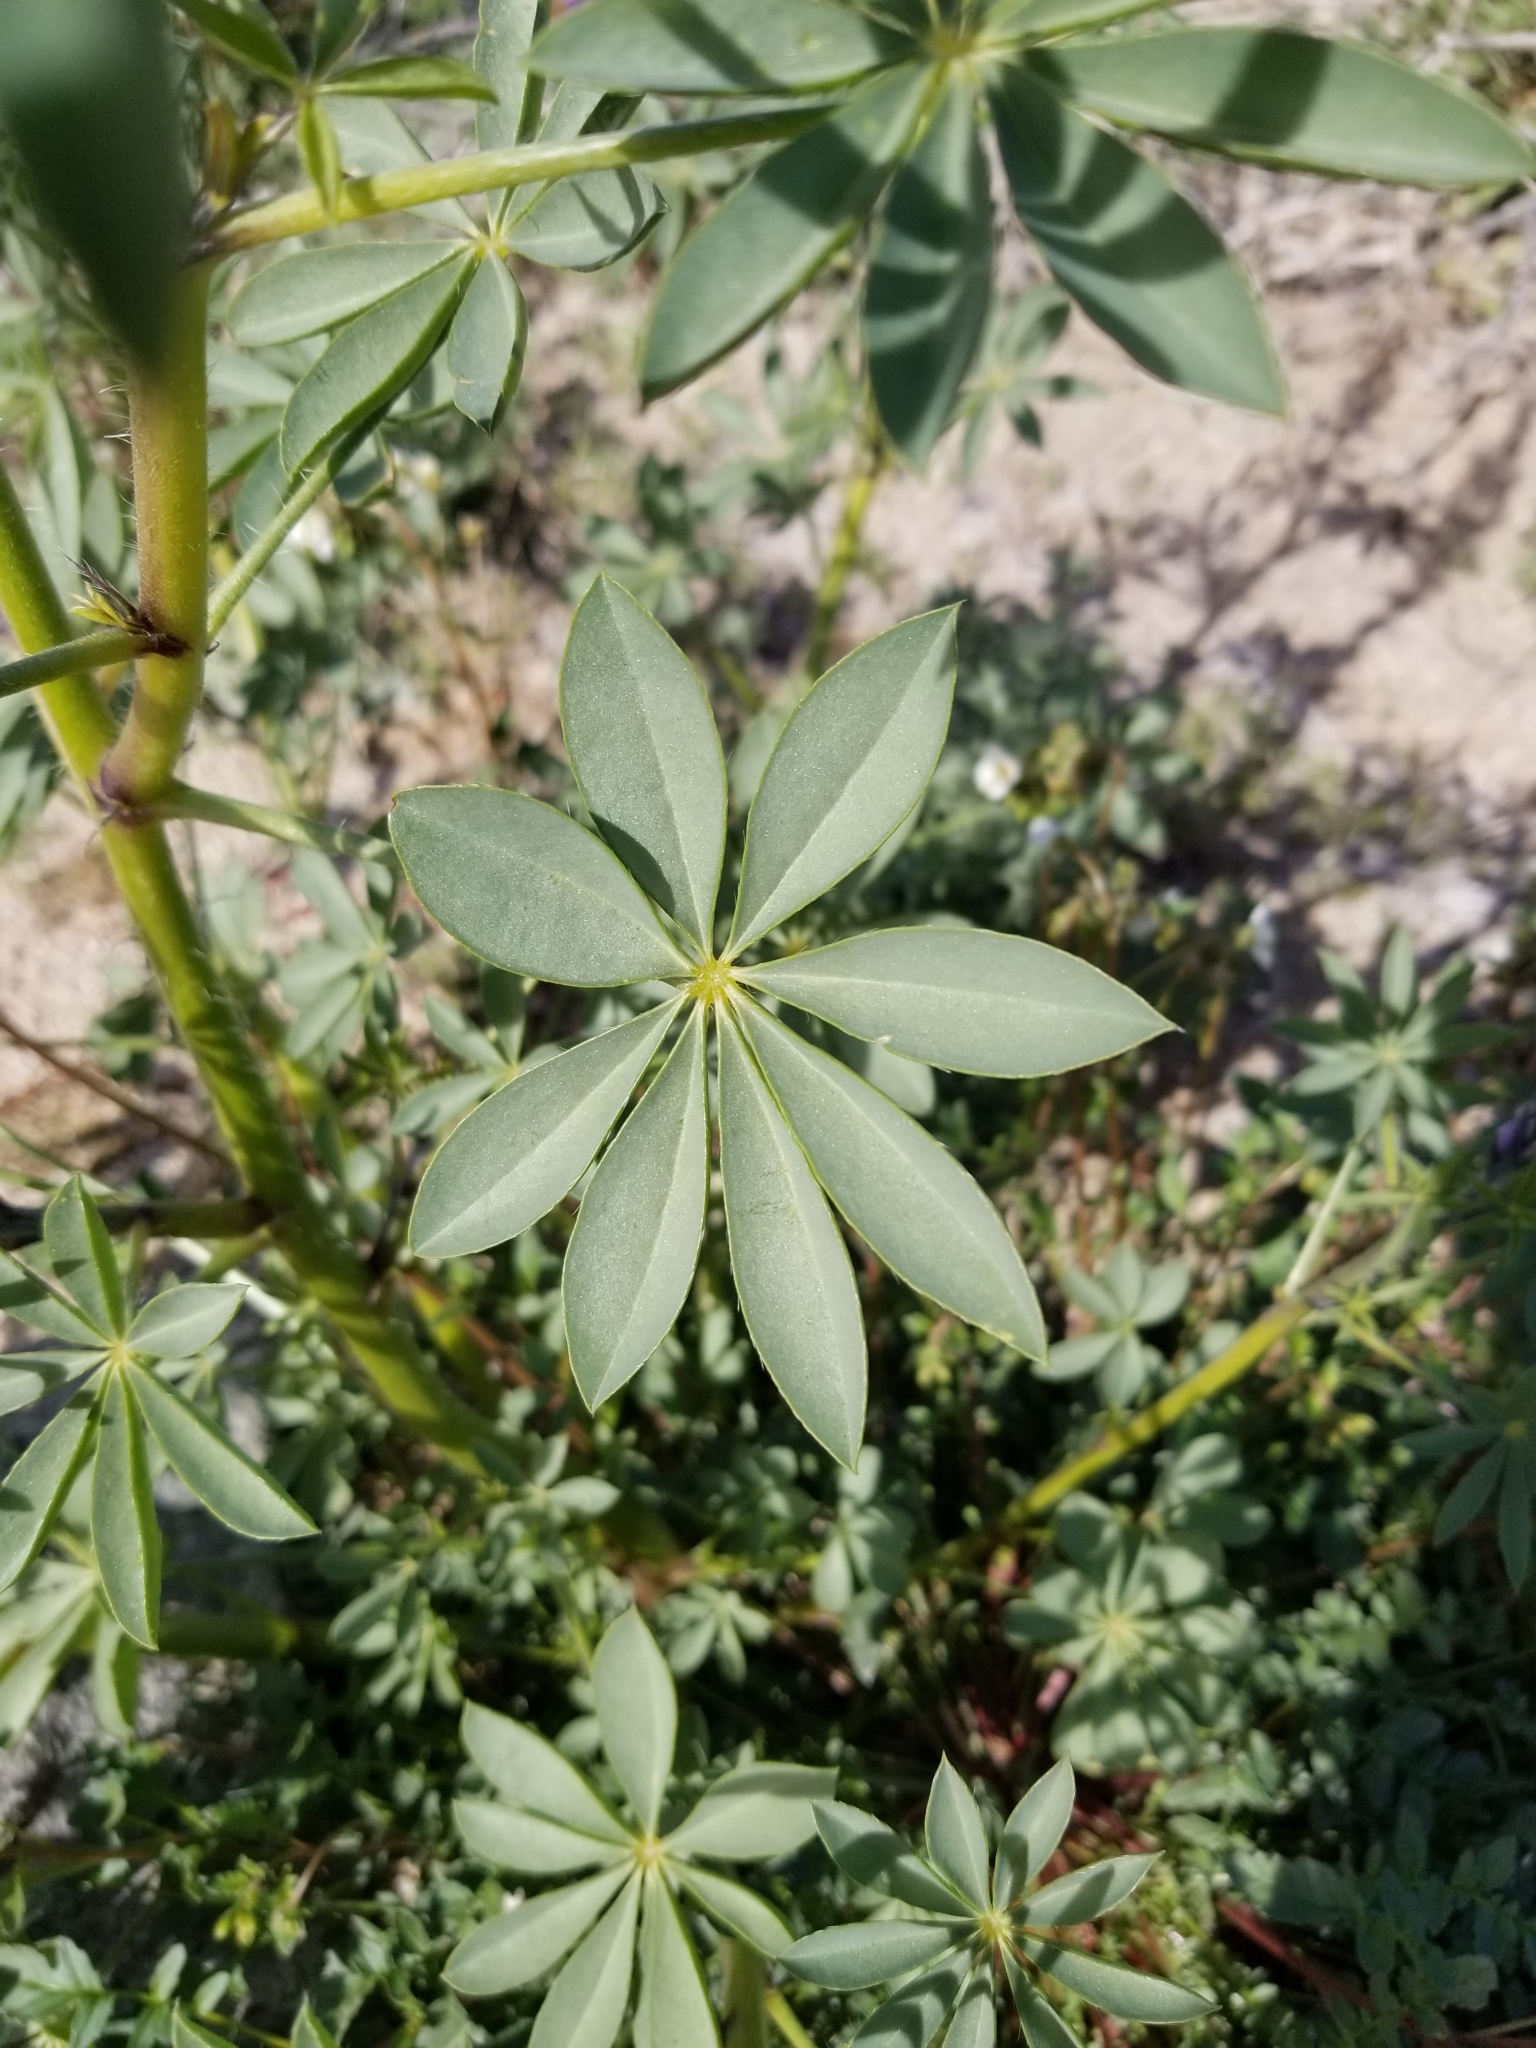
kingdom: Plantae
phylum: Tracheophyta
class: Magnoliopsida
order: Fabales
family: Fabaceae
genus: Lupinus
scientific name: Lupinus arizonicus
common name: Arizona lupine
